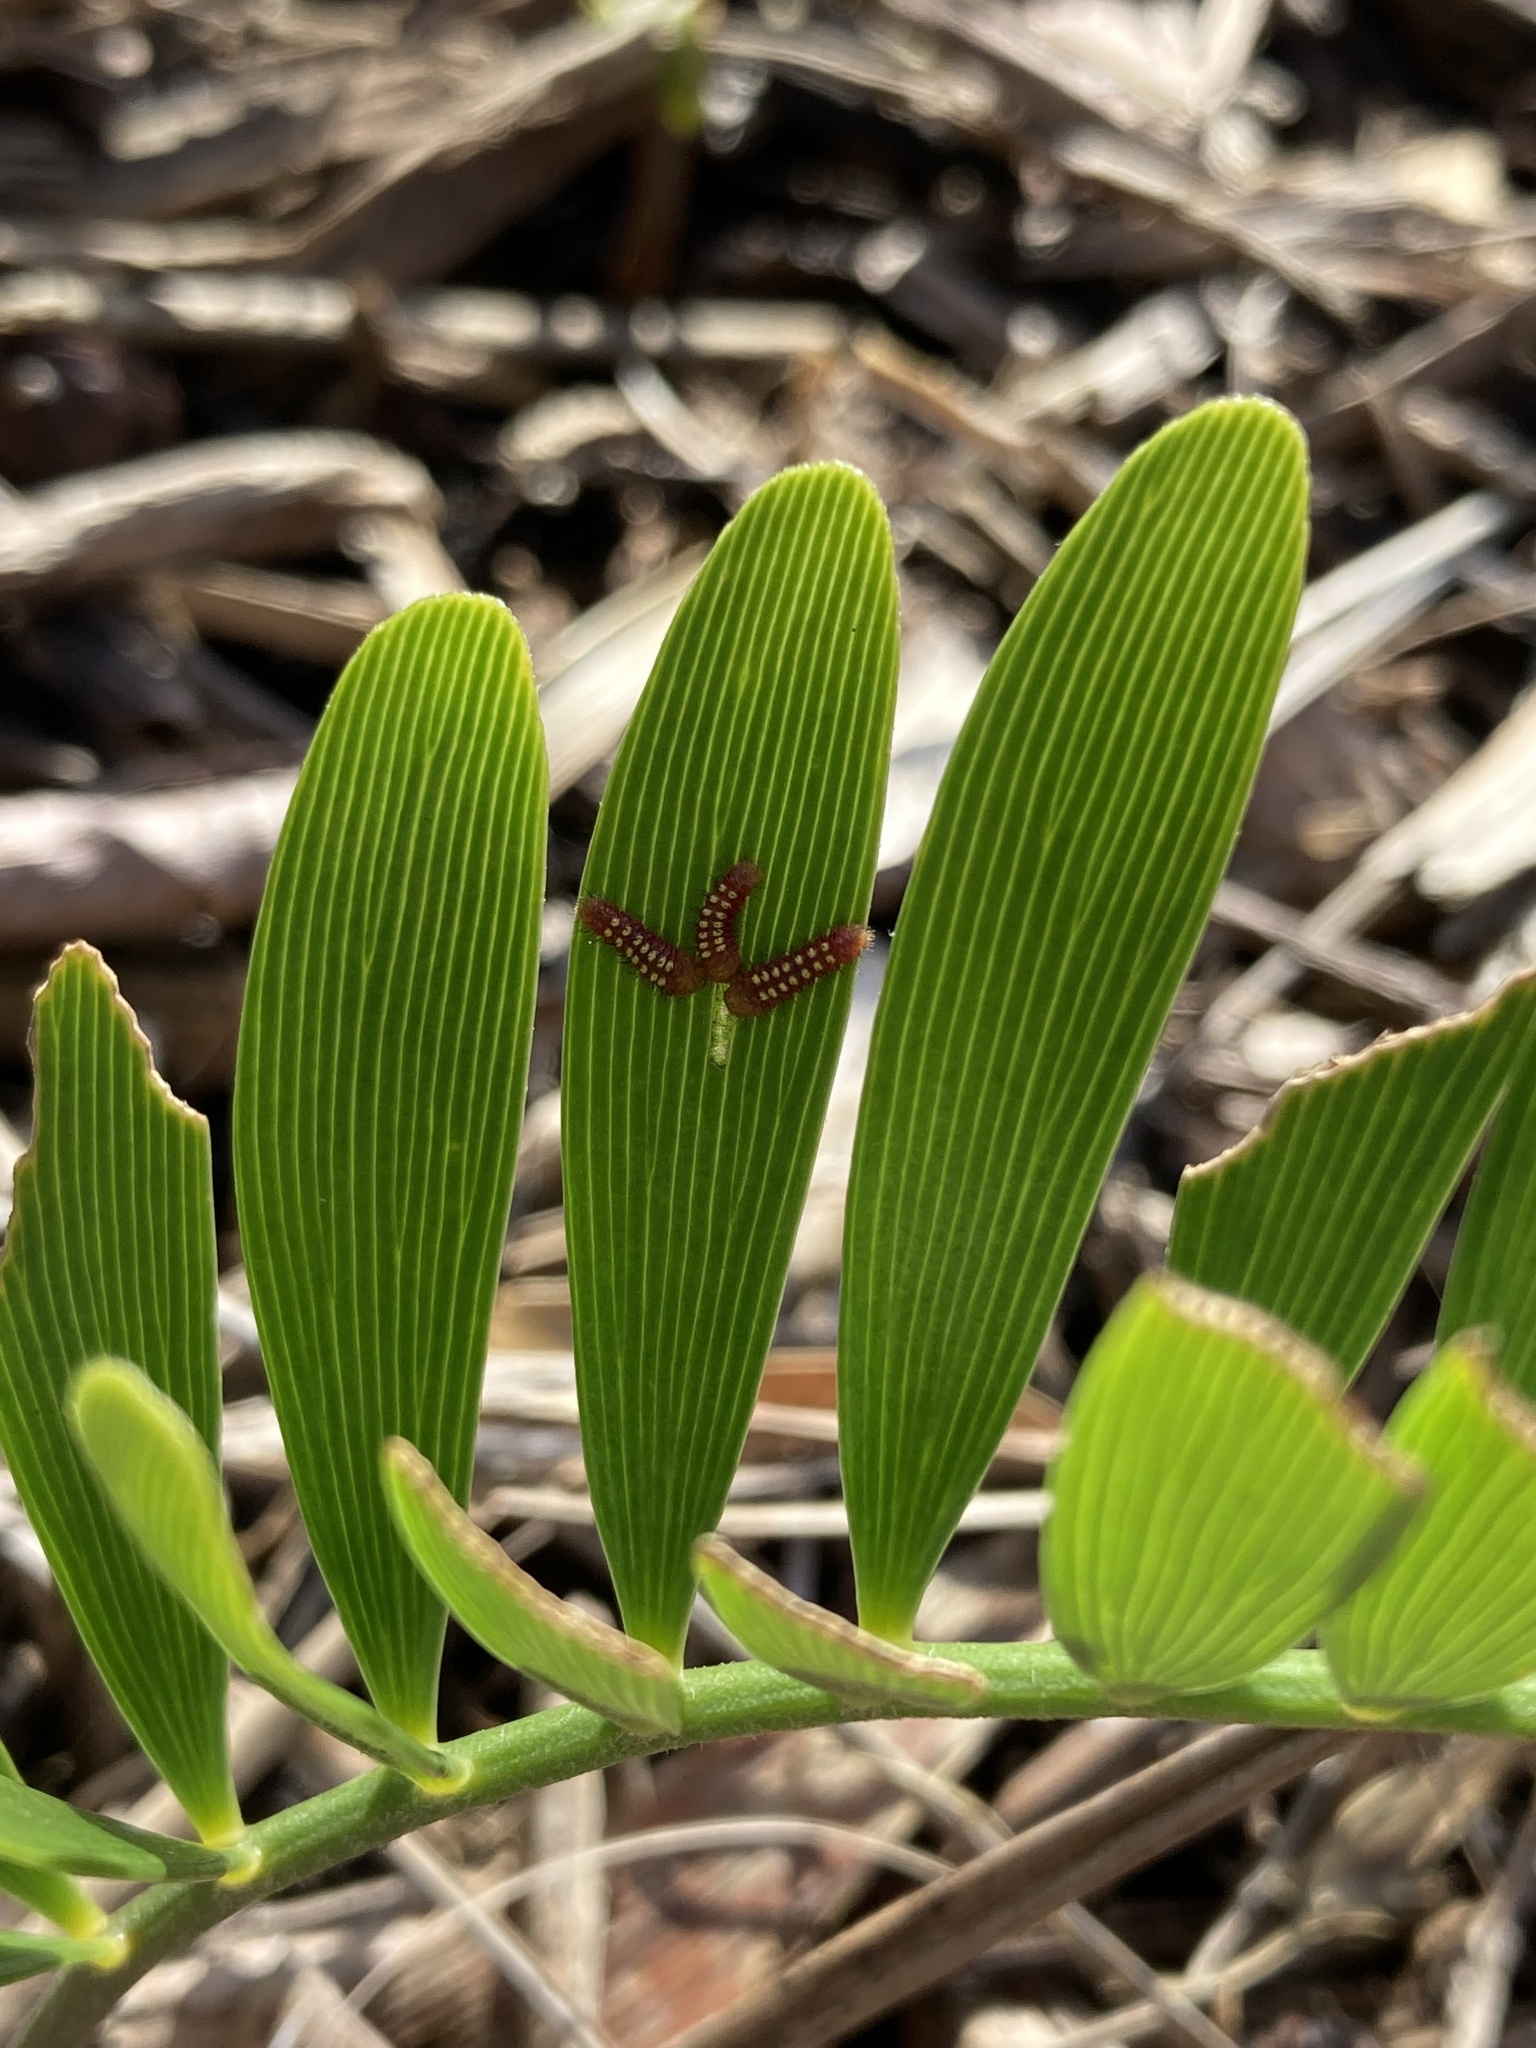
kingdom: Animalia
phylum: Arthropoda
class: Insecta
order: Lepidoptera
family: Lycaenidae
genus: Eumaeus
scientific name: Eumaeus atala
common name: Atala
